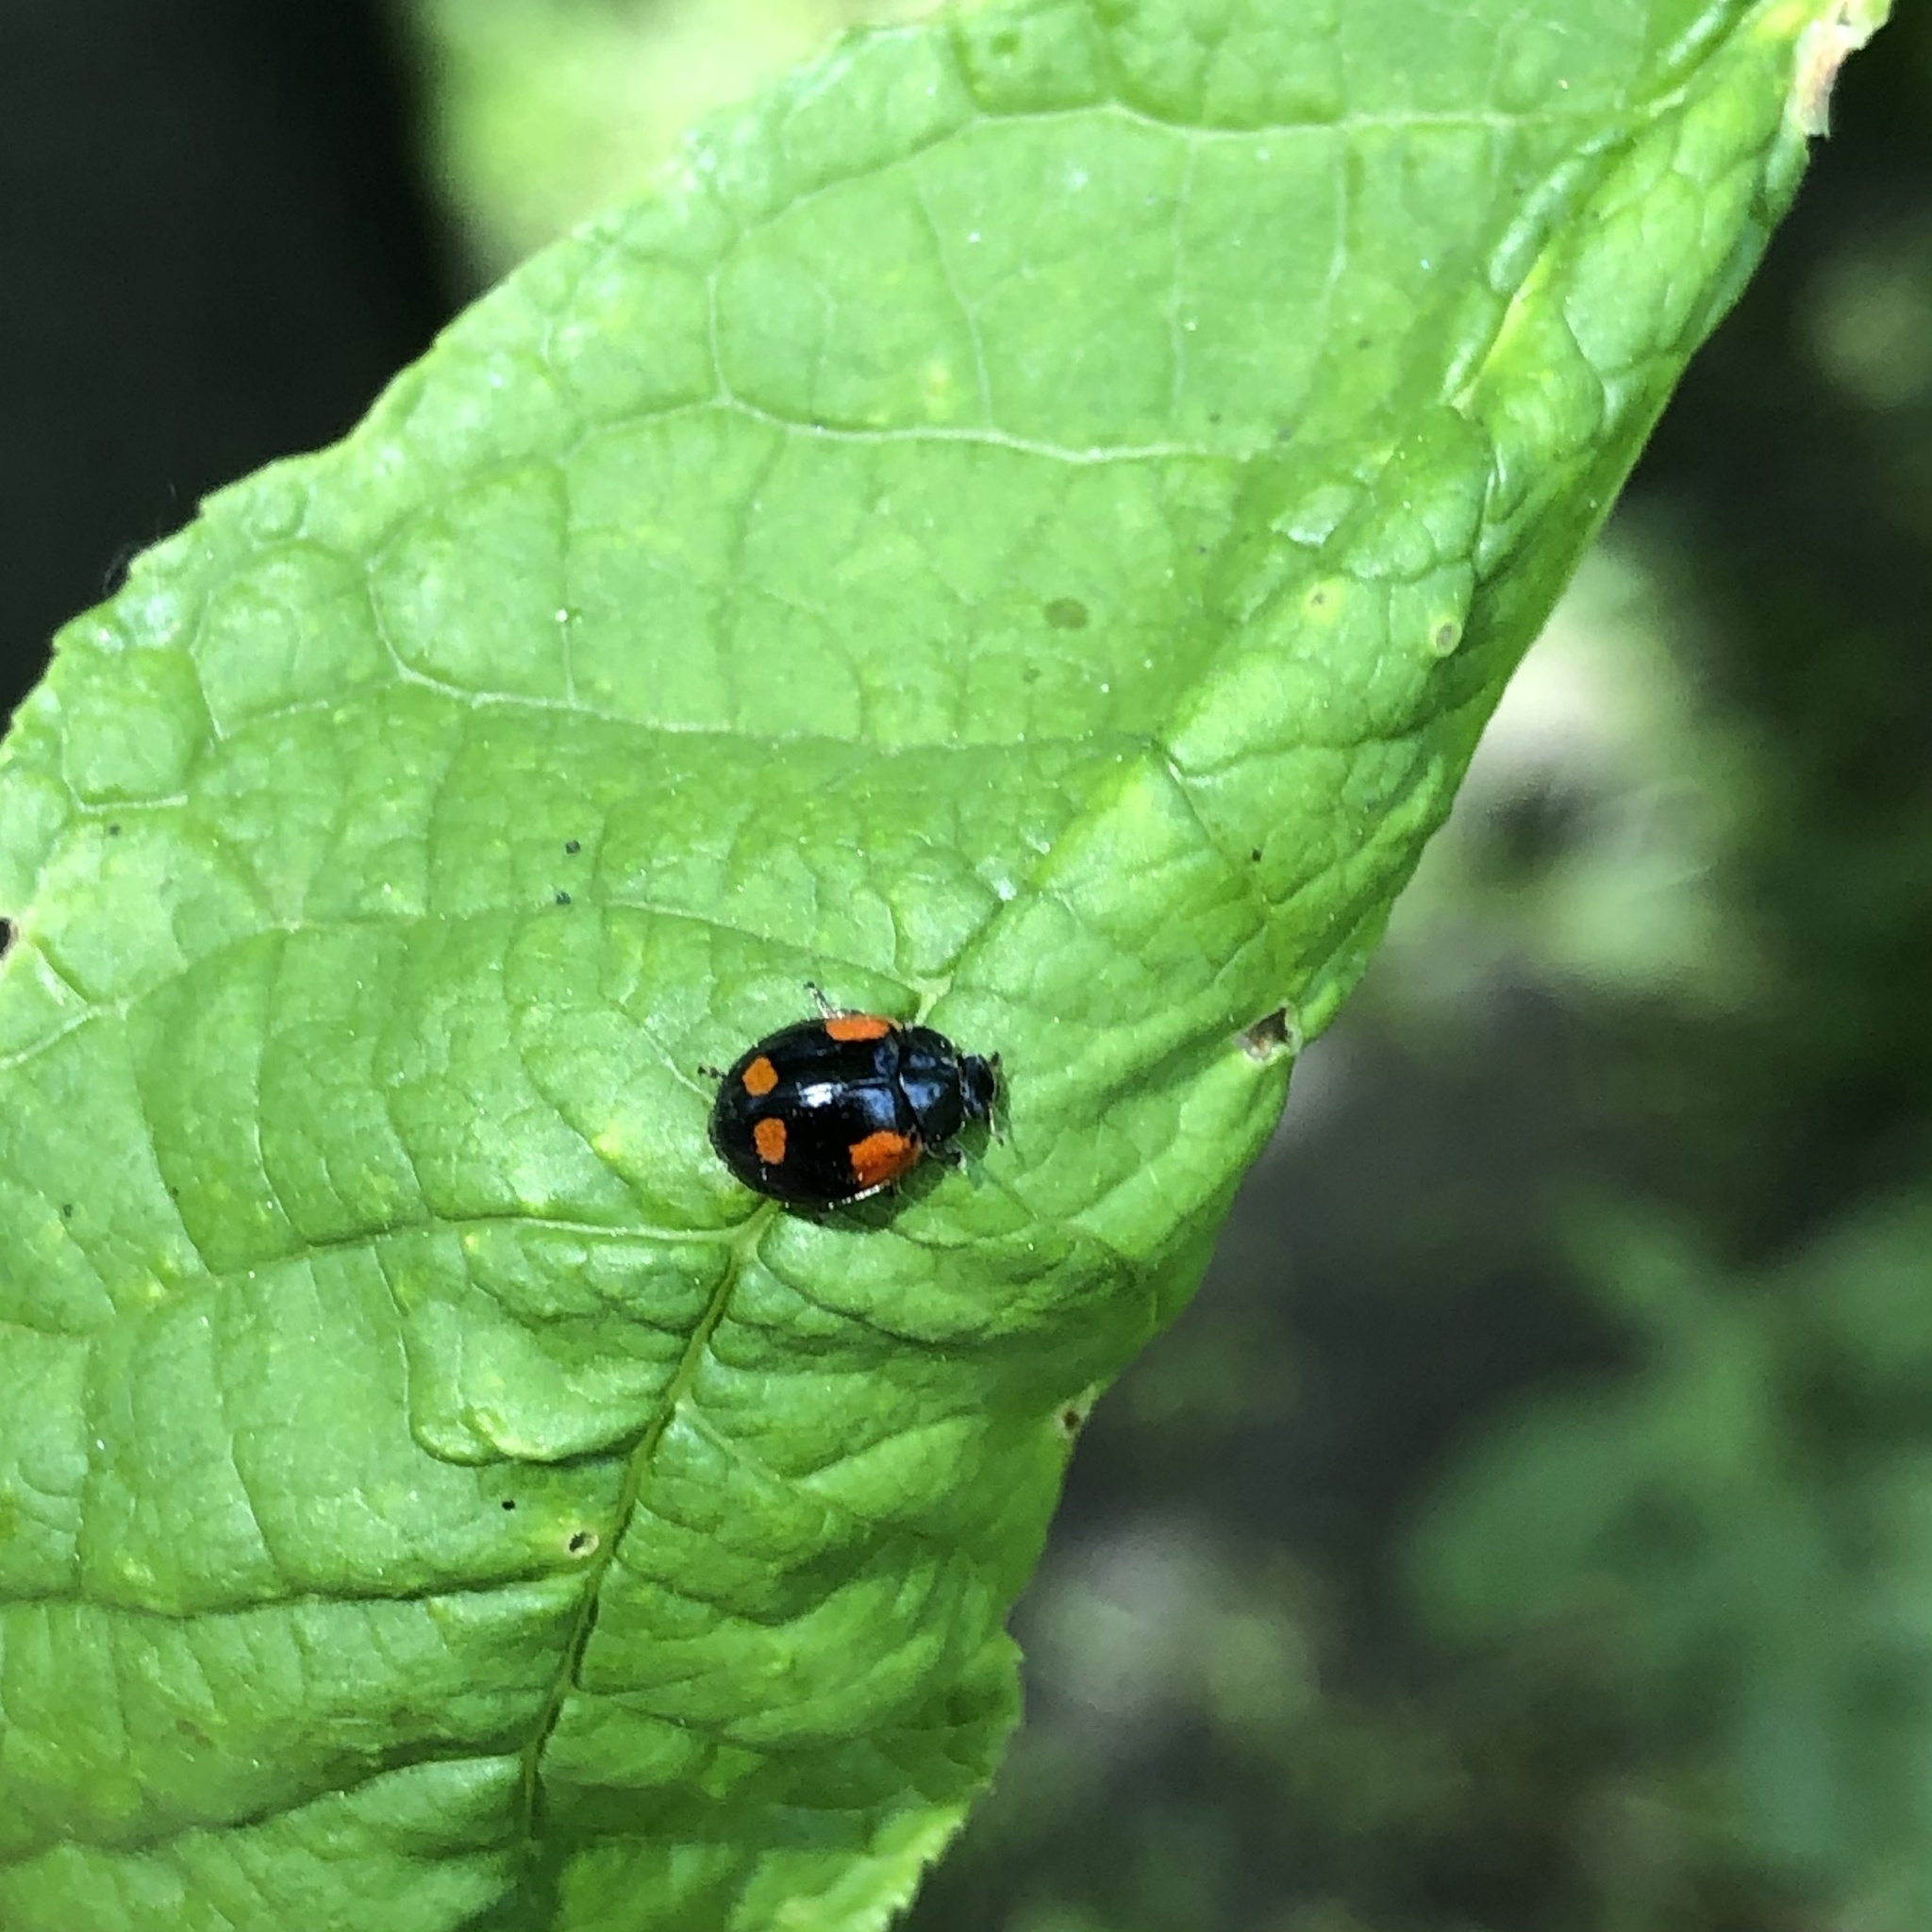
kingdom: Animalia
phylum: Arthropoda
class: Insecta
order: Coleoptera
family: Coccinellidae
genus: Adalia
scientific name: Adalia bipunctata
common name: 2-spot ladybird
